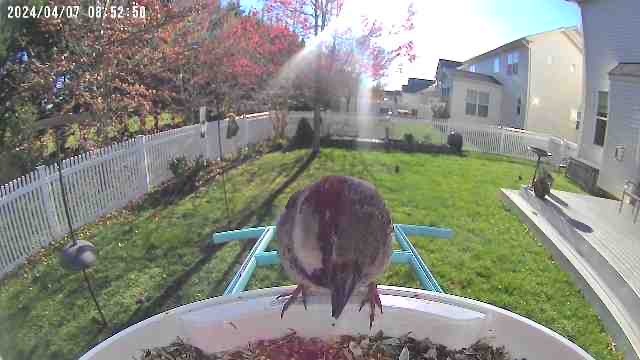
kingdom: Animalia
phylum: Chordata
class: Aves
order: Passeriformes
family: Passeridae
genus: Passer
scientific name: Passer domesticus
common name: House sparrow
